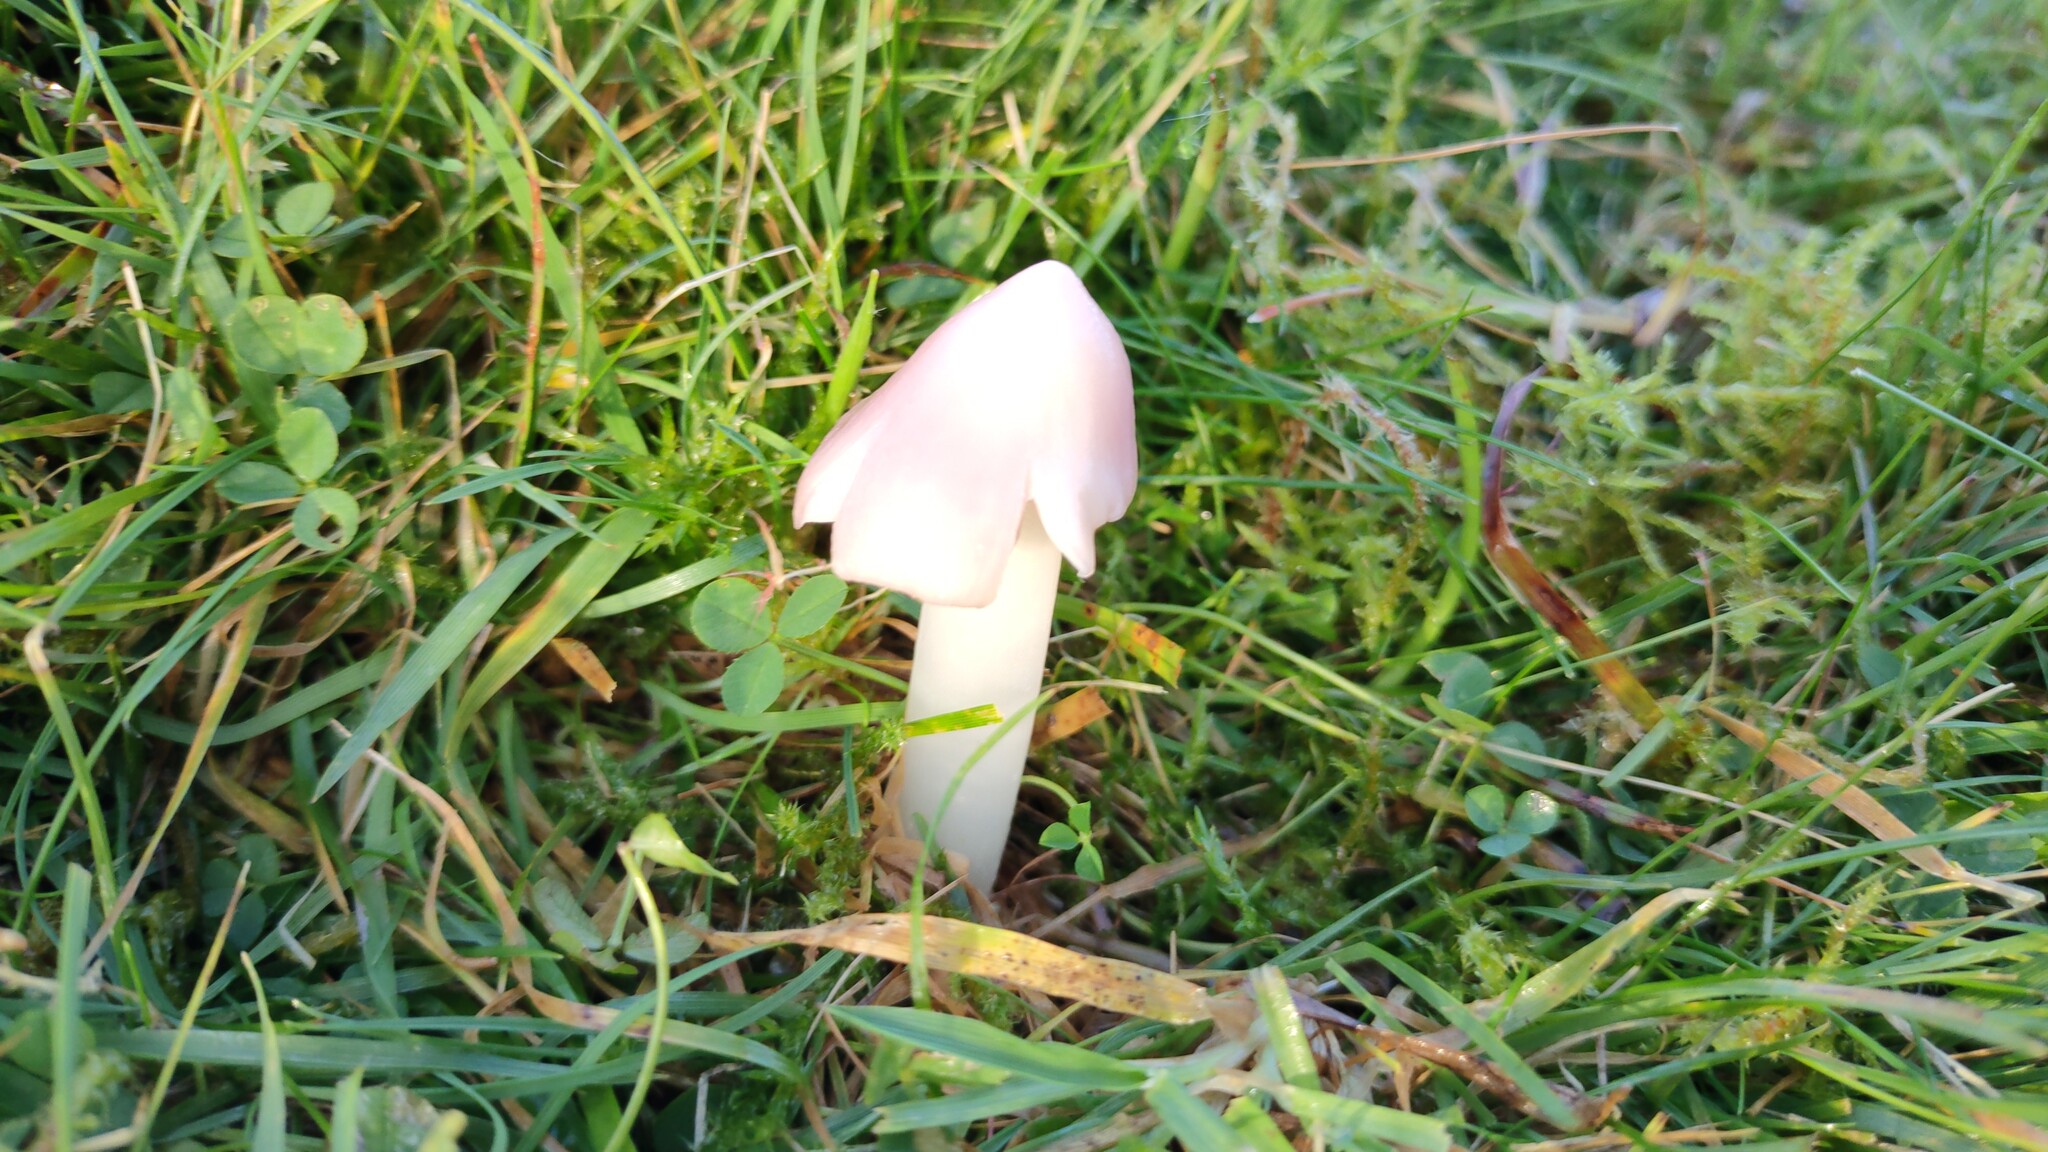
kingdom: Fungi
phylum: Basidiomycota
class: Agaricomycetes
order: Agaricales
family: Hygrophoraceae
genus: Porpolomopsis
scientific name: Porpolomopsis calyptriformis
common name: Pink waxcap
